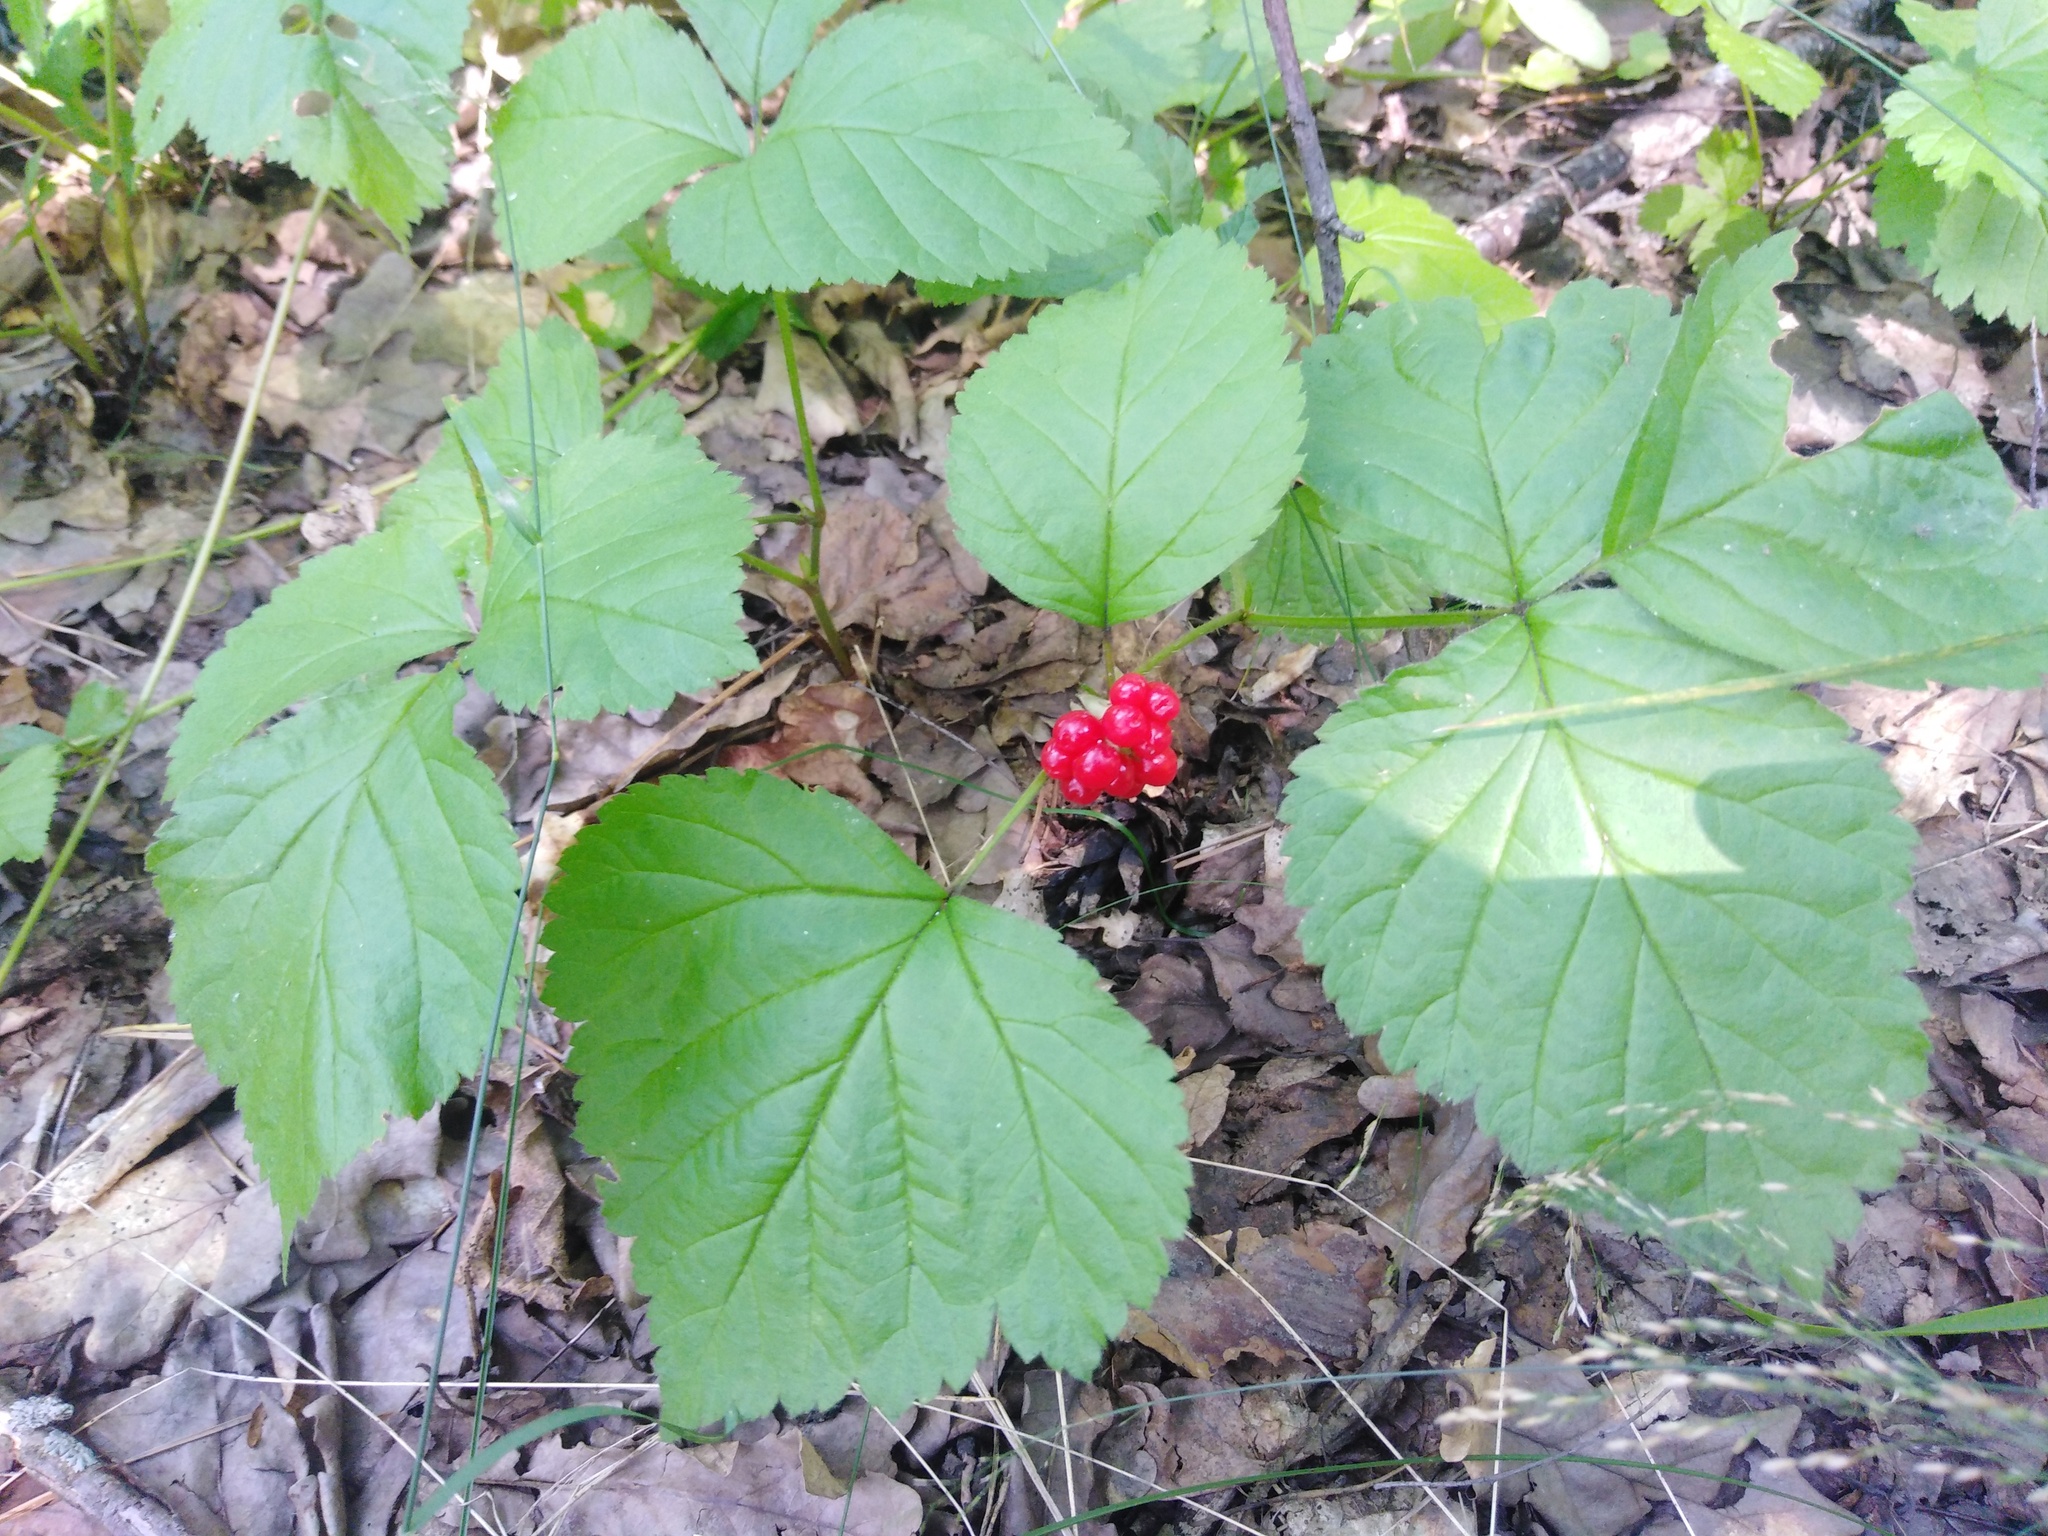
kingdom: Plantae
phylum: Tracheophyta
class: Magnoliopsida
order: Rosales
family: Rosaceae
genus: Rubus
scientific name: Rubus saxatilis
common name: Stone bramble
